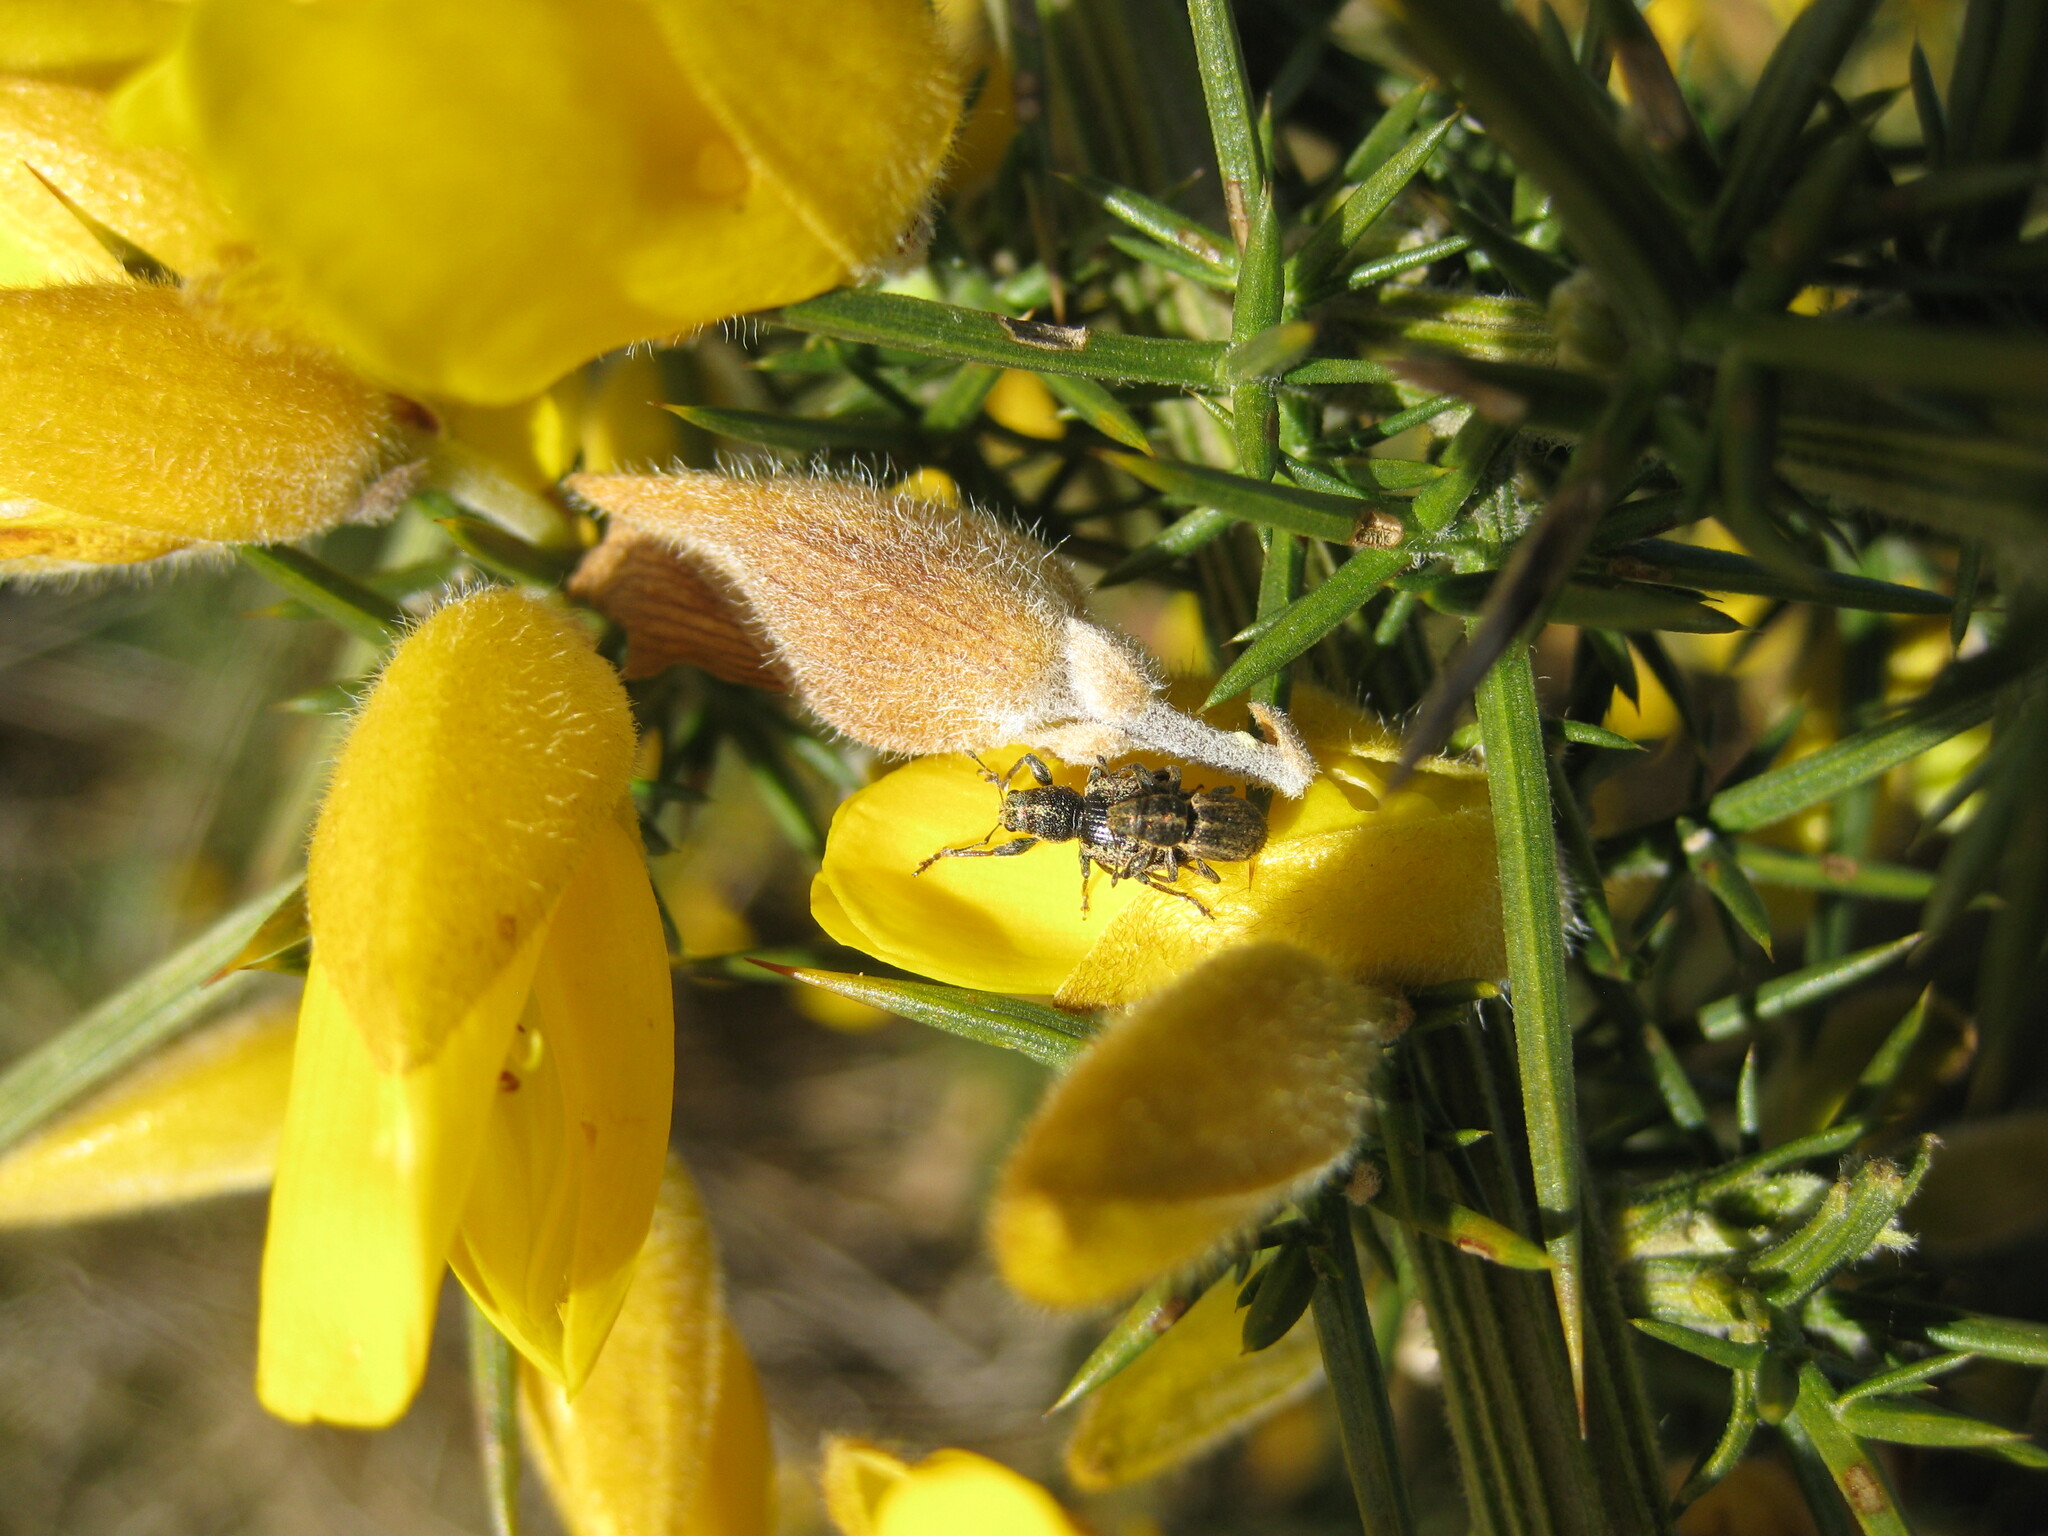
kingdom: Animalia
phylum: Arthropoda
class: Insecta
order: Coleoptera
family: Curculionidae
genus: Andrion
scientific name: Andrion regensteinense
